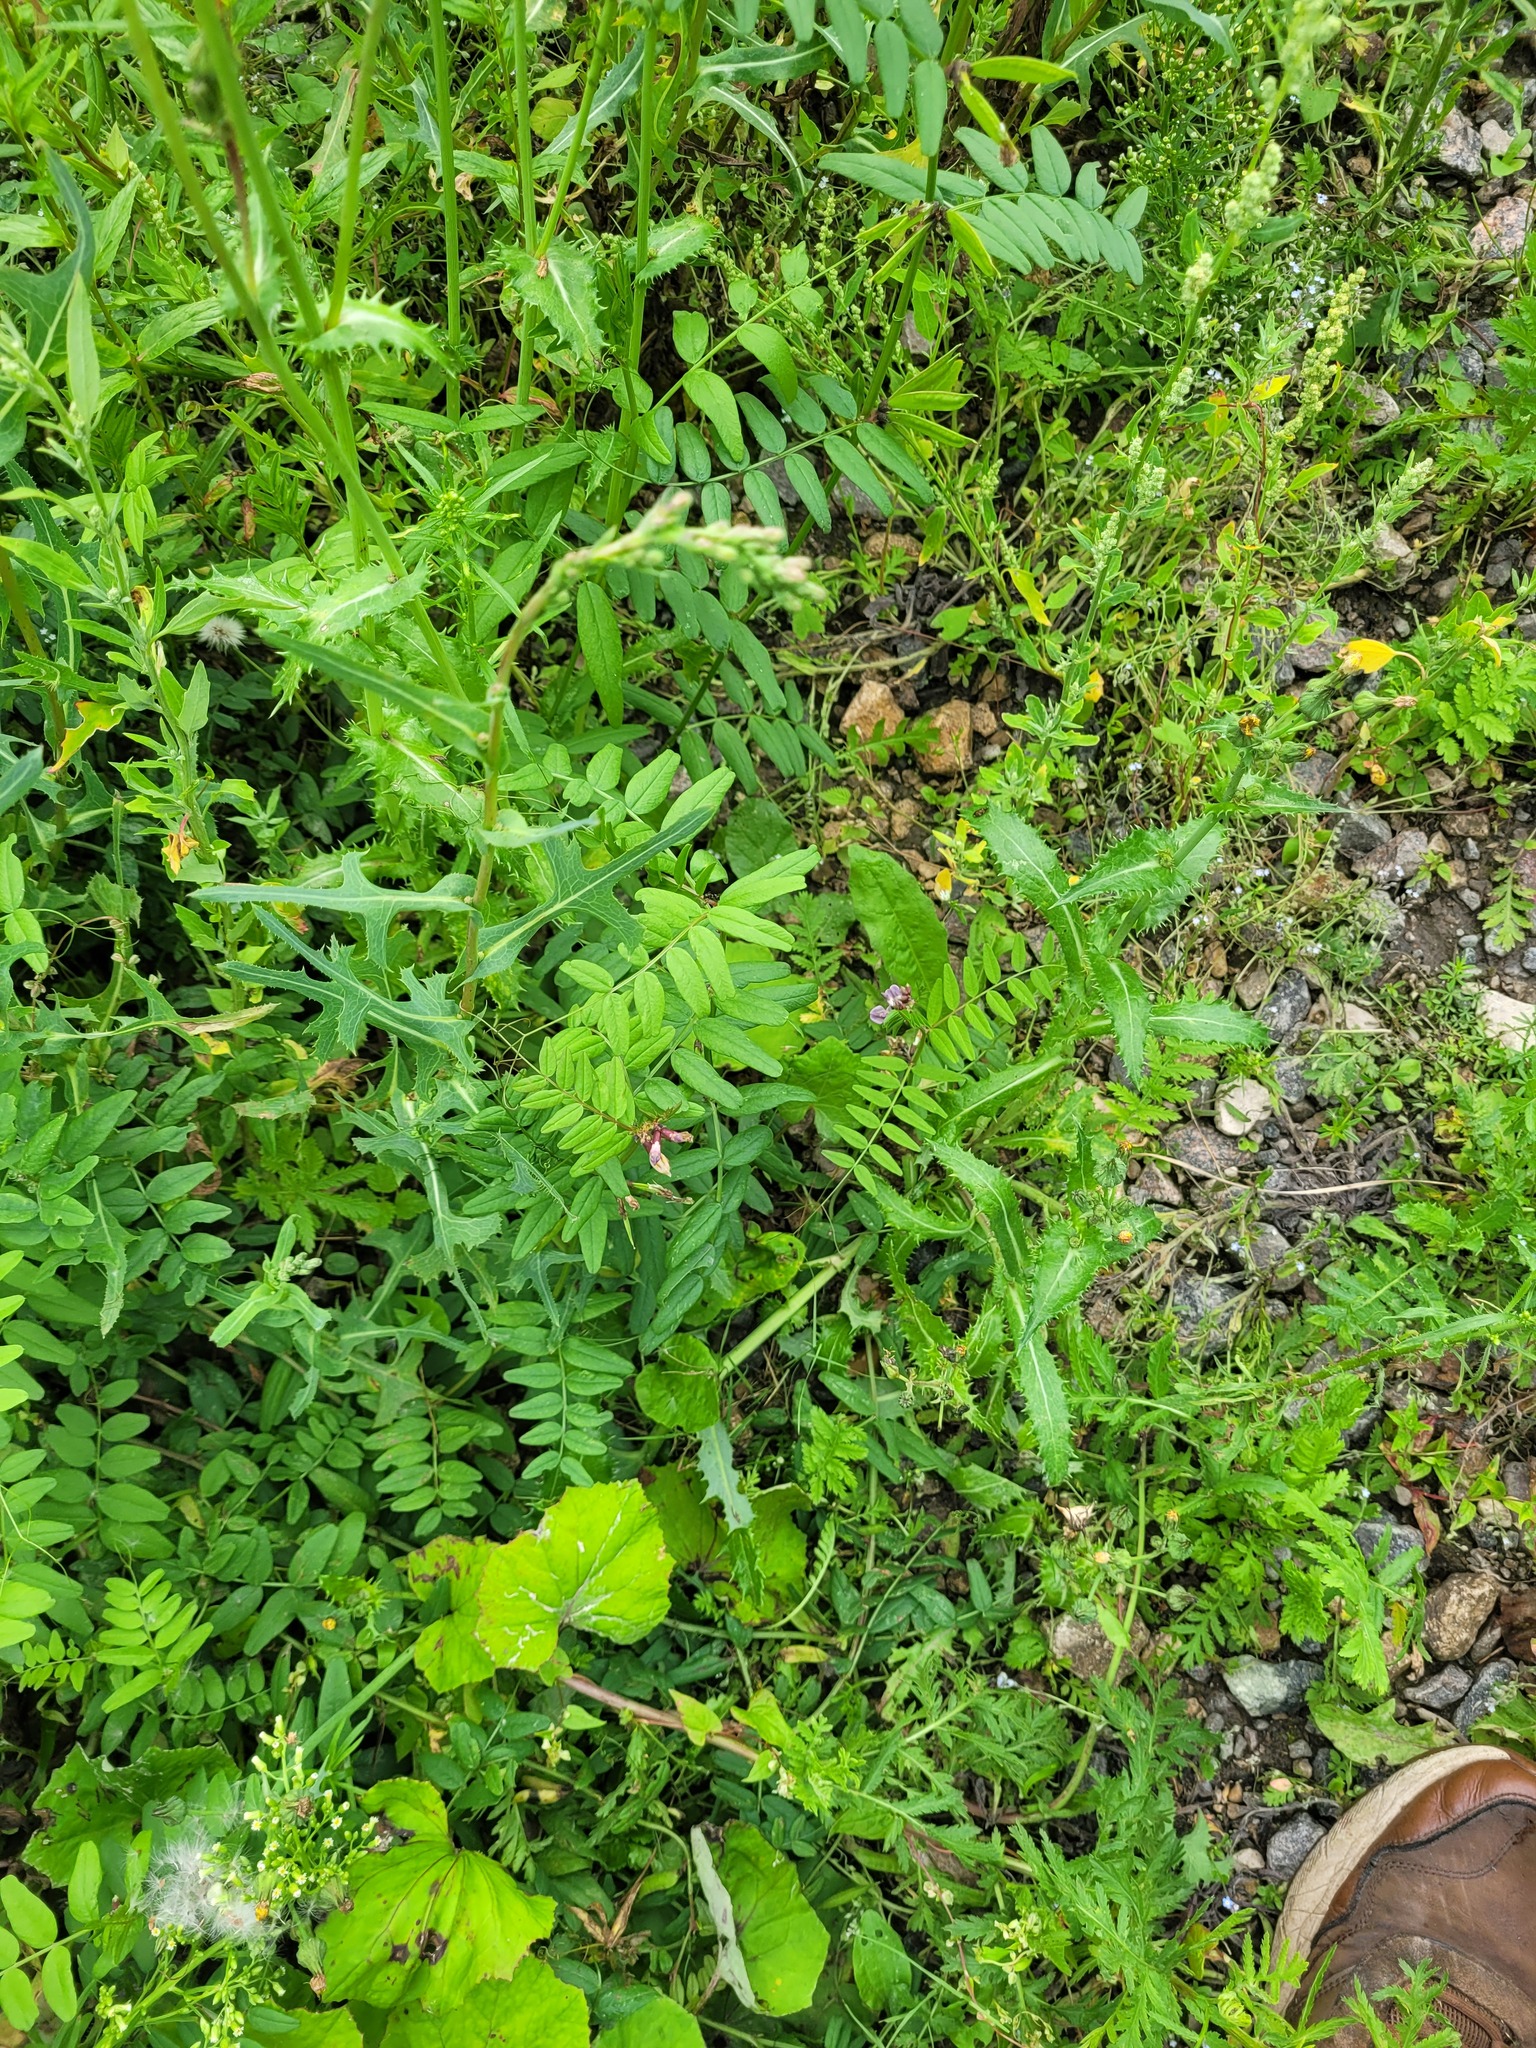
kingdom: Plantae
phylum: Tracheophyta
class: Magnoliopsida
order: Fabales
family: Fabaceae
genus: Vicia
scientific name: Vicia sepium
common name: Bush vetch
